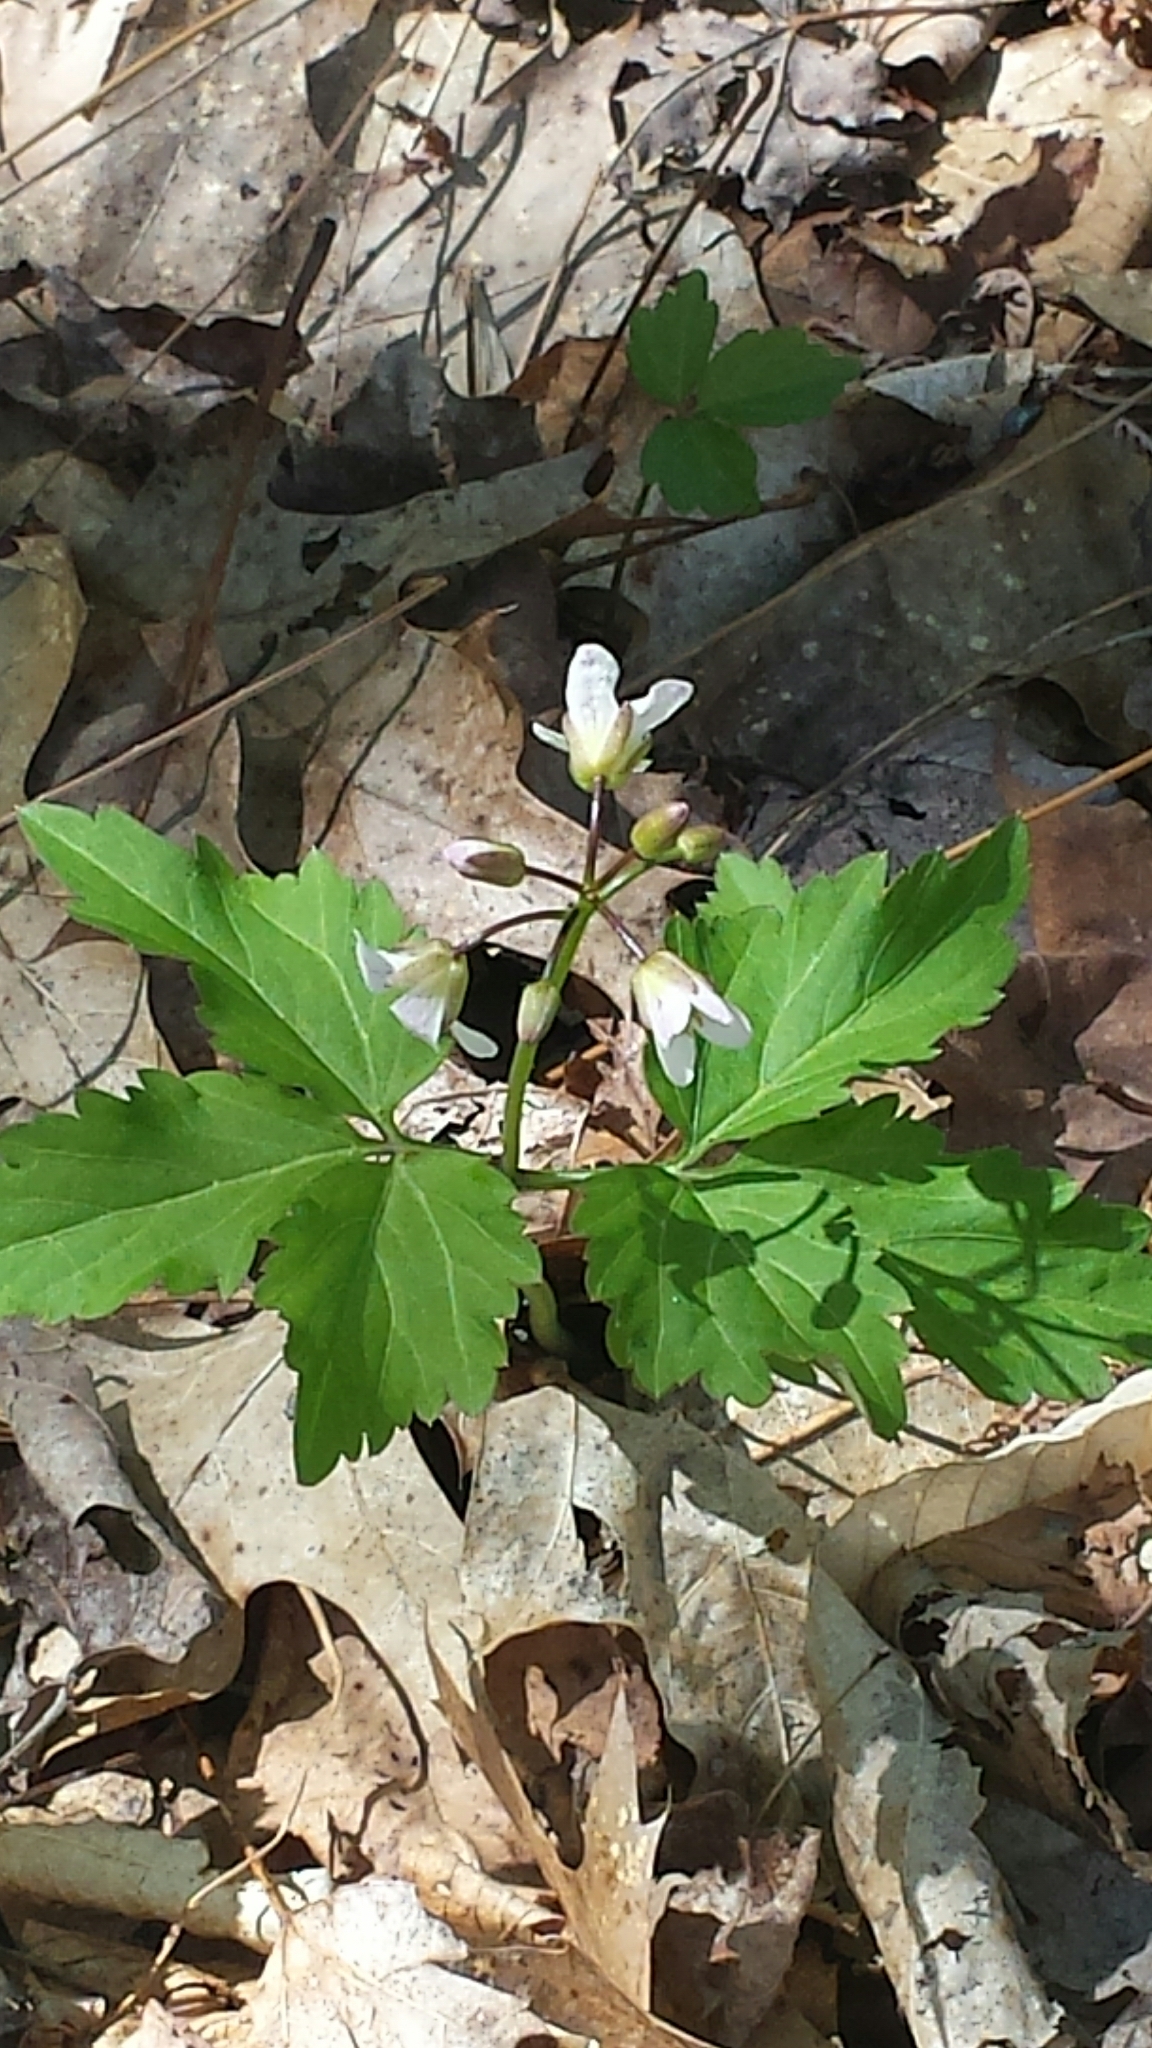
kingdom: Plantae
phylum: Tracheophyta
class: Magnoliopsida
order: Brassicales
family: Brassicaceae
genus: Cardamine
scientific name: Cardamine diphylla
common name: Broad-leaved toothwort
